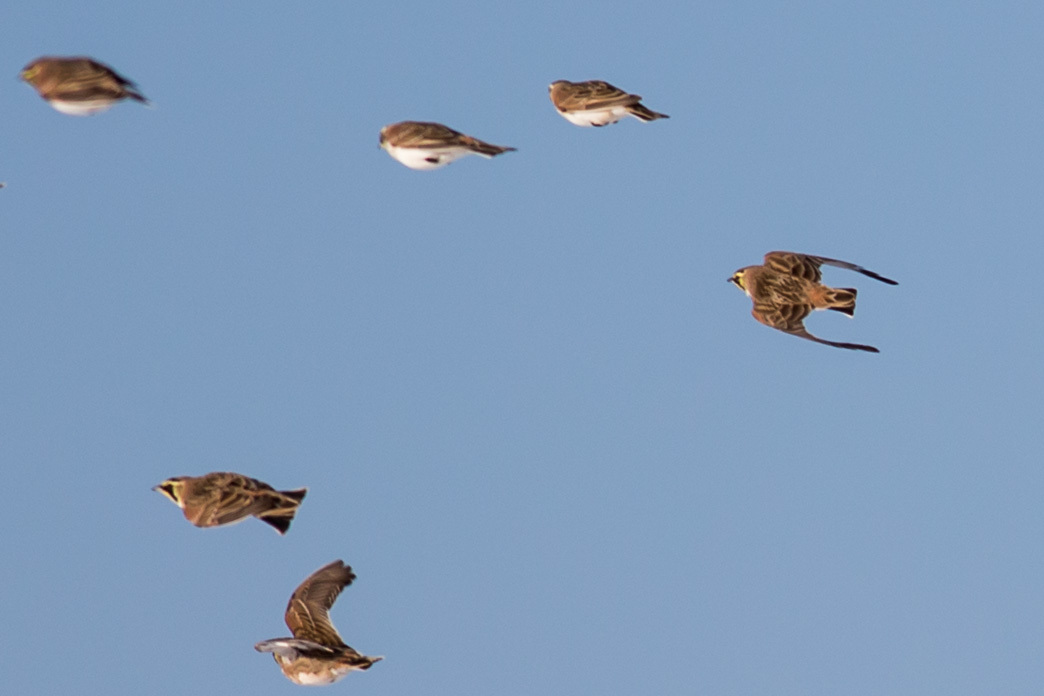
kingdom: Animalia
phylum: Chordata
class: Aves
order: Passeriformes
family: Alaudidae
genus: Eremophila
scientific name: Eremophila alpestris
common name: Horned lark
